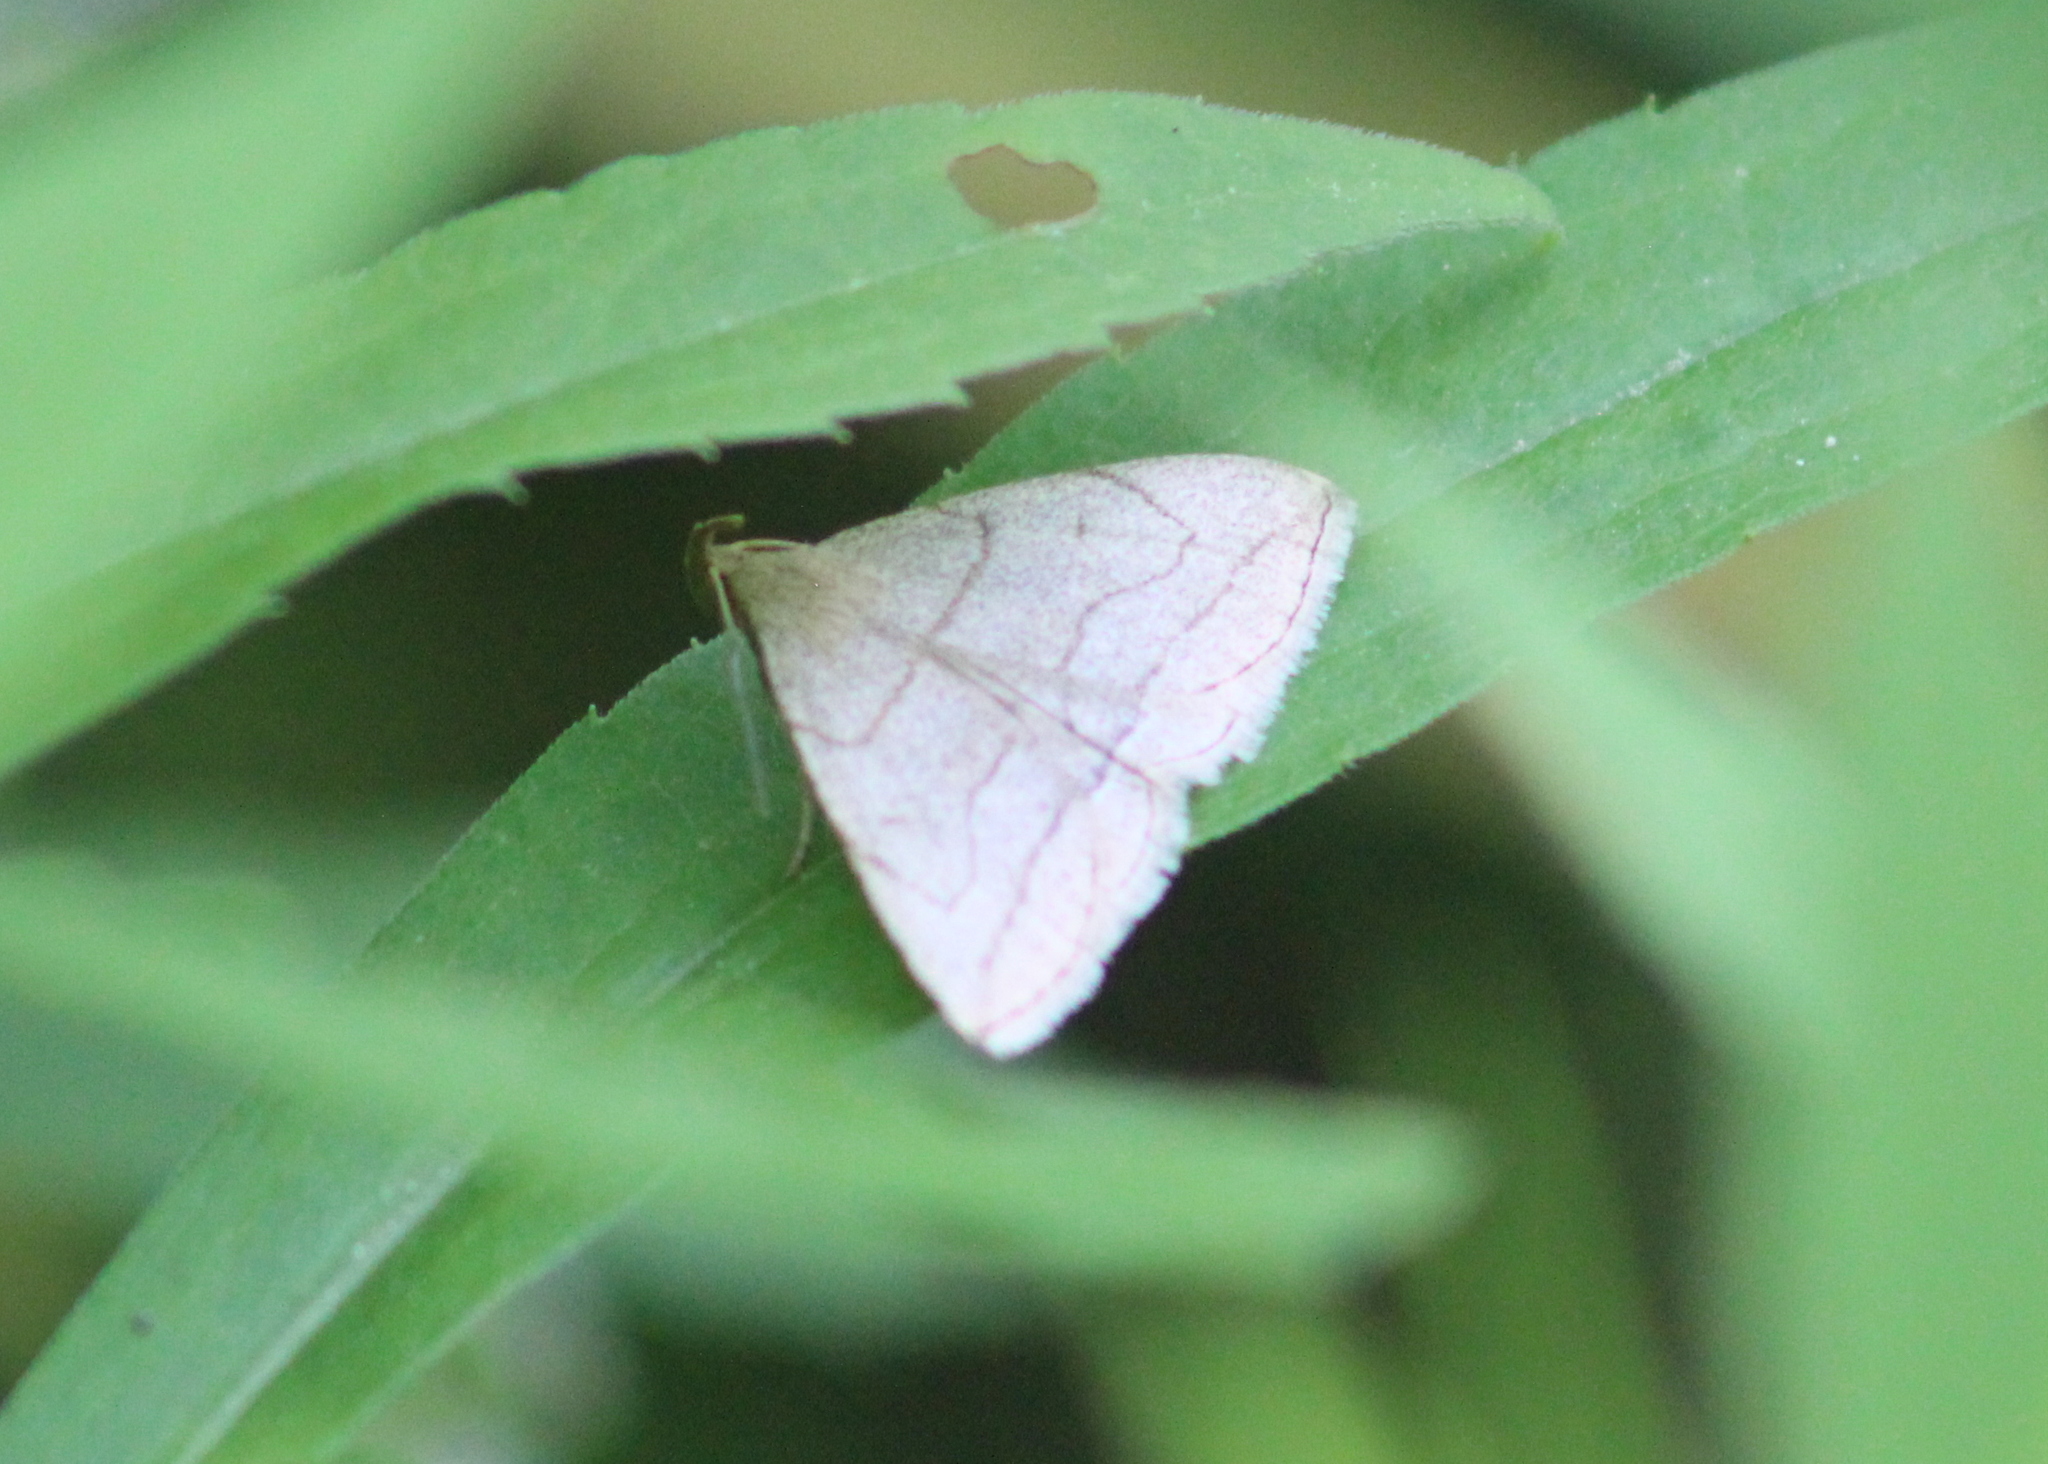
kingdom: Animalia
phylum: Arthropoda
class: Insecta
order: Lepidoptera
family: Erebidae
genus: Zanclognatha
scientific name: Zanclognatha pedipilalis
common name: Grayish fan-foot
